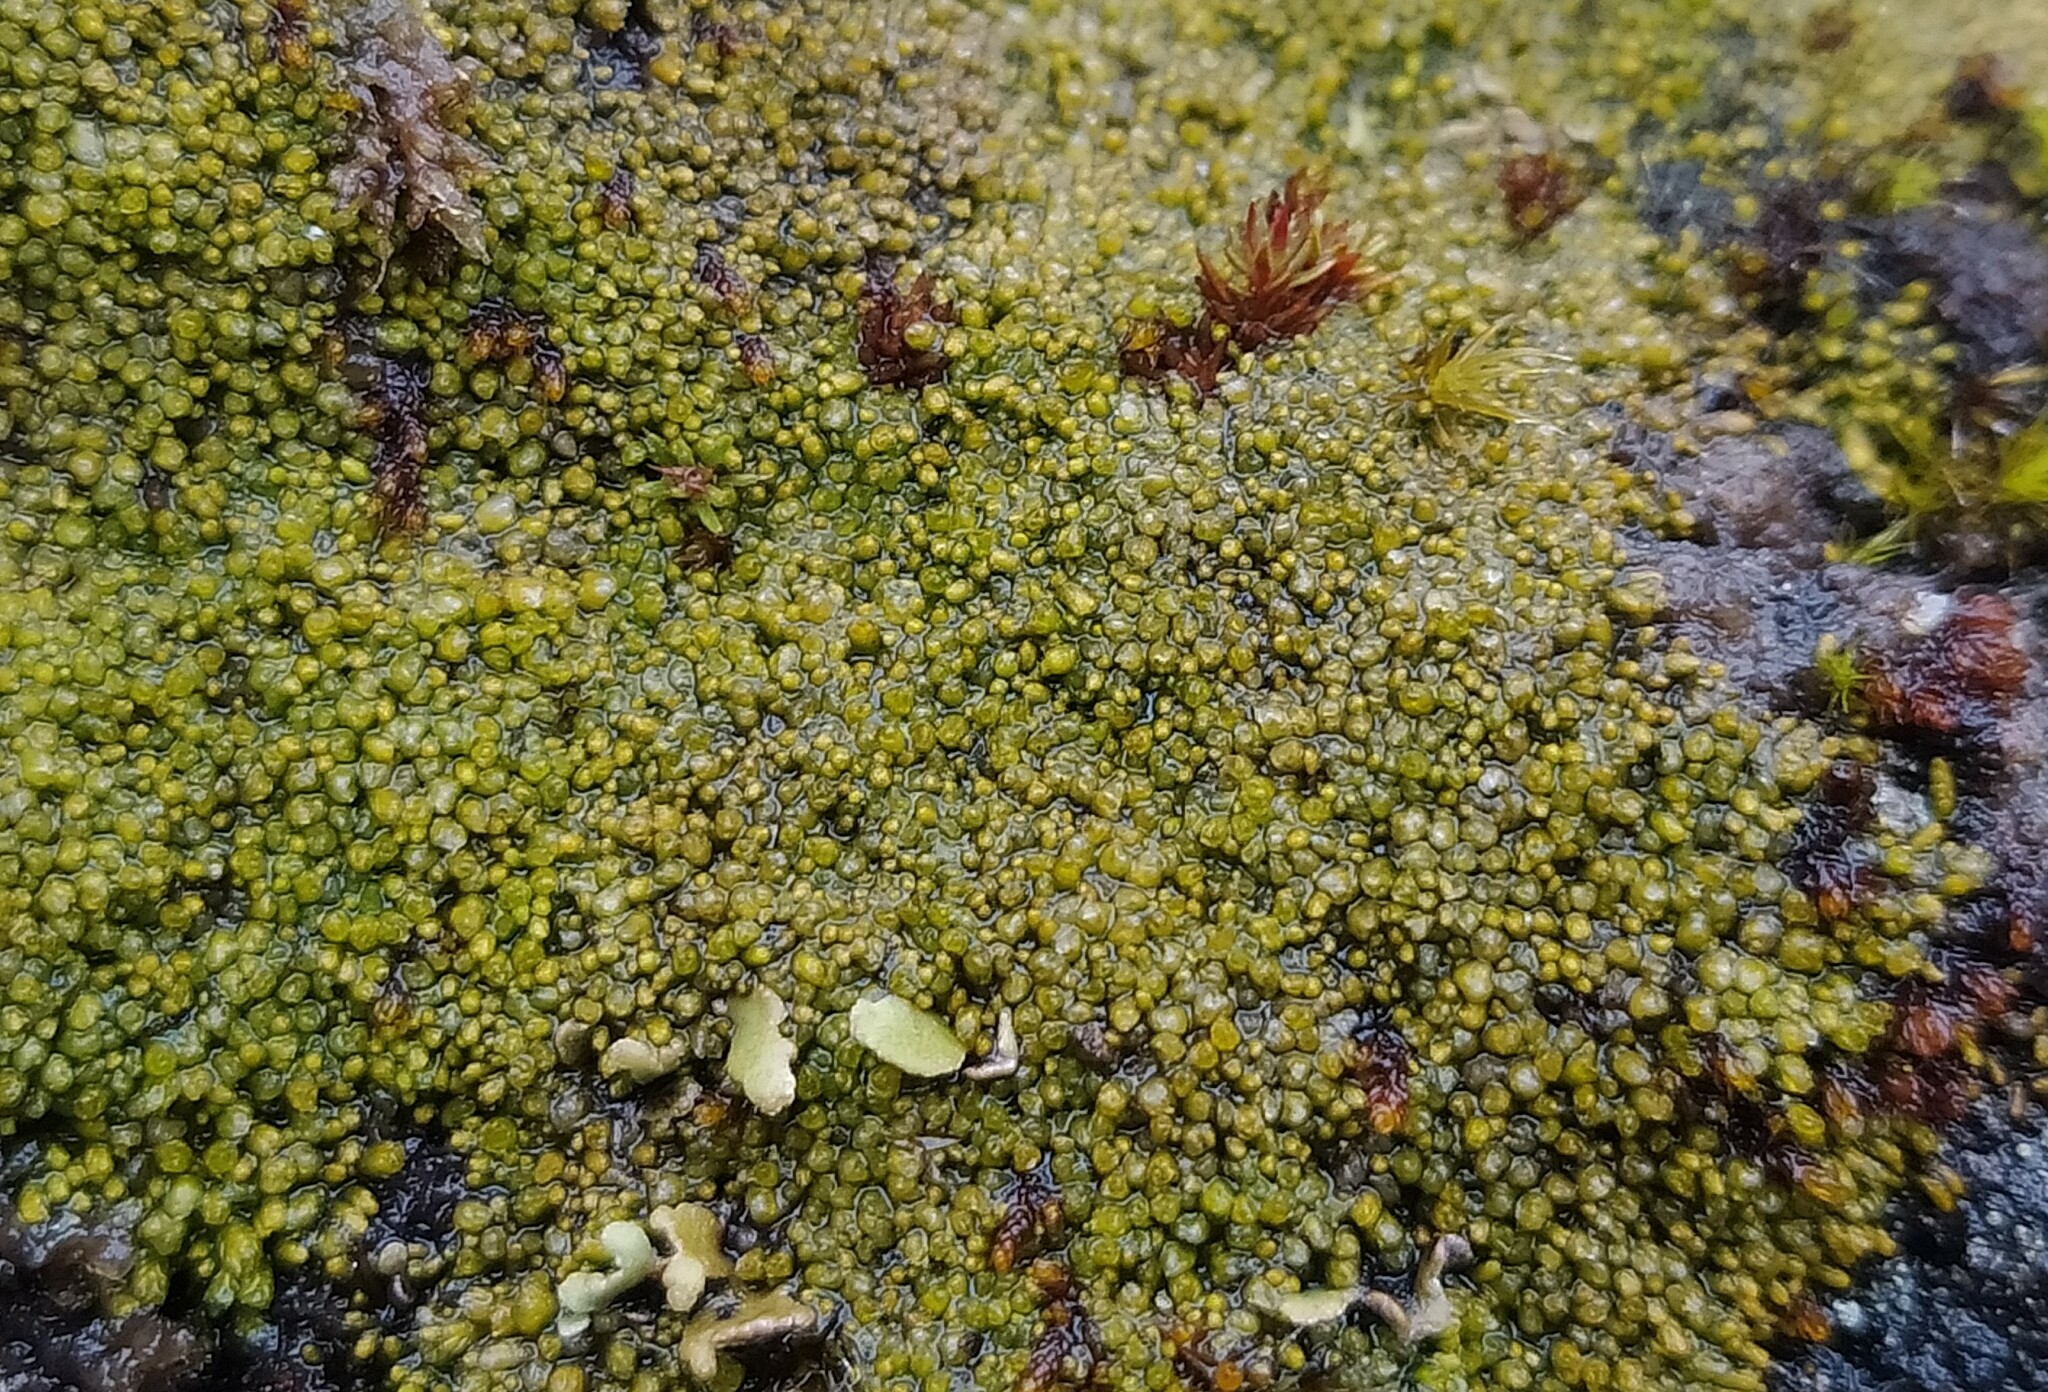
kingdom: Plantae
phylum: Marchantiophyta
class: Jungermanniopsida
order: Jungermanniales
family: Gymnomitriaceae
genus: Gymnomitrion
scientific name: Gymnomitrion concinnatum
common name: Braided frostwort
